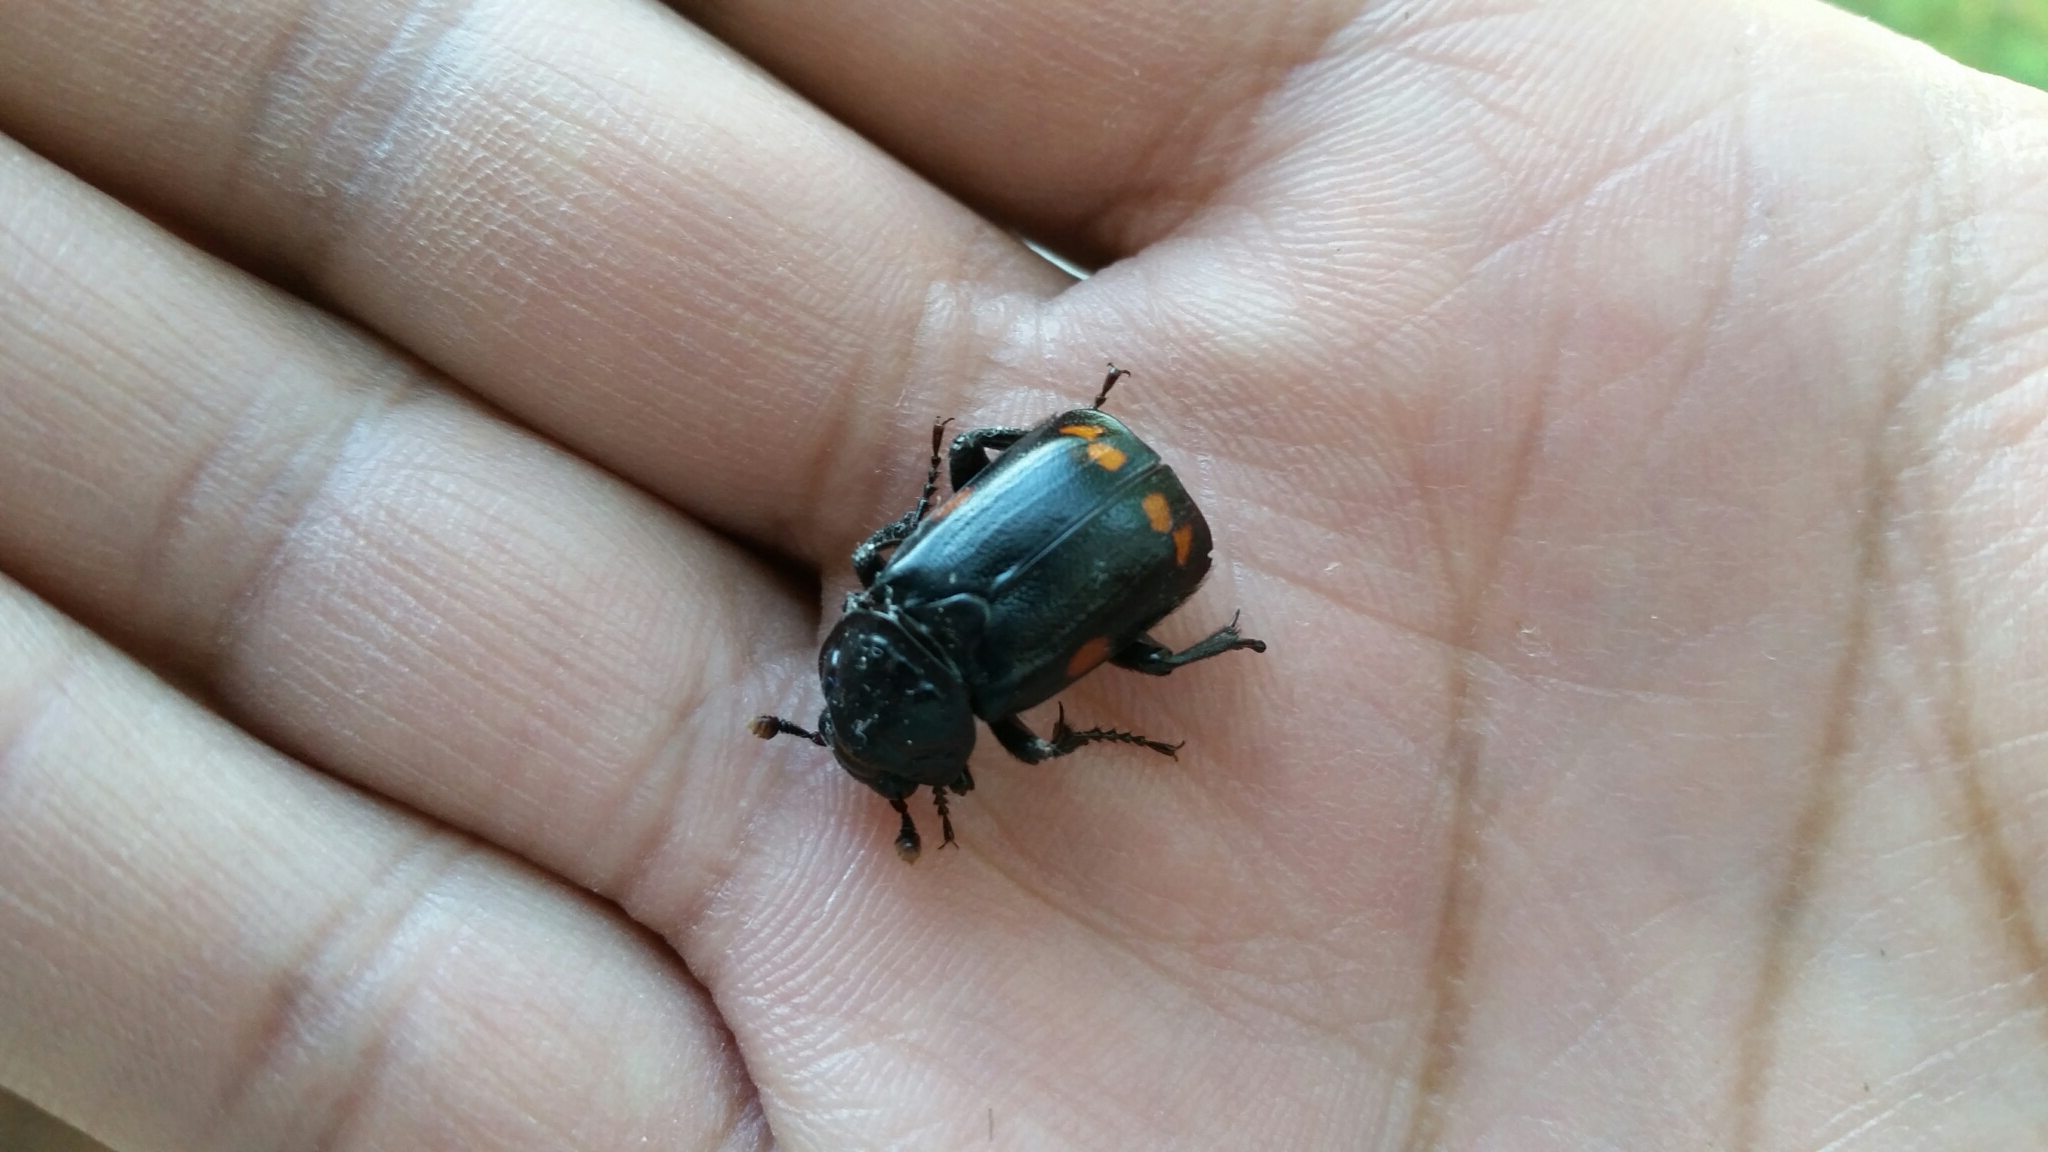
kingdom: Animalia
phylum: Arthropoda
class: Insecta
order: Coleoptera
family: Staphylinidae
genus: Nicrophorus
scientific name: Nicrophorus pustulatus
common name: Pustulated carrion beetle
